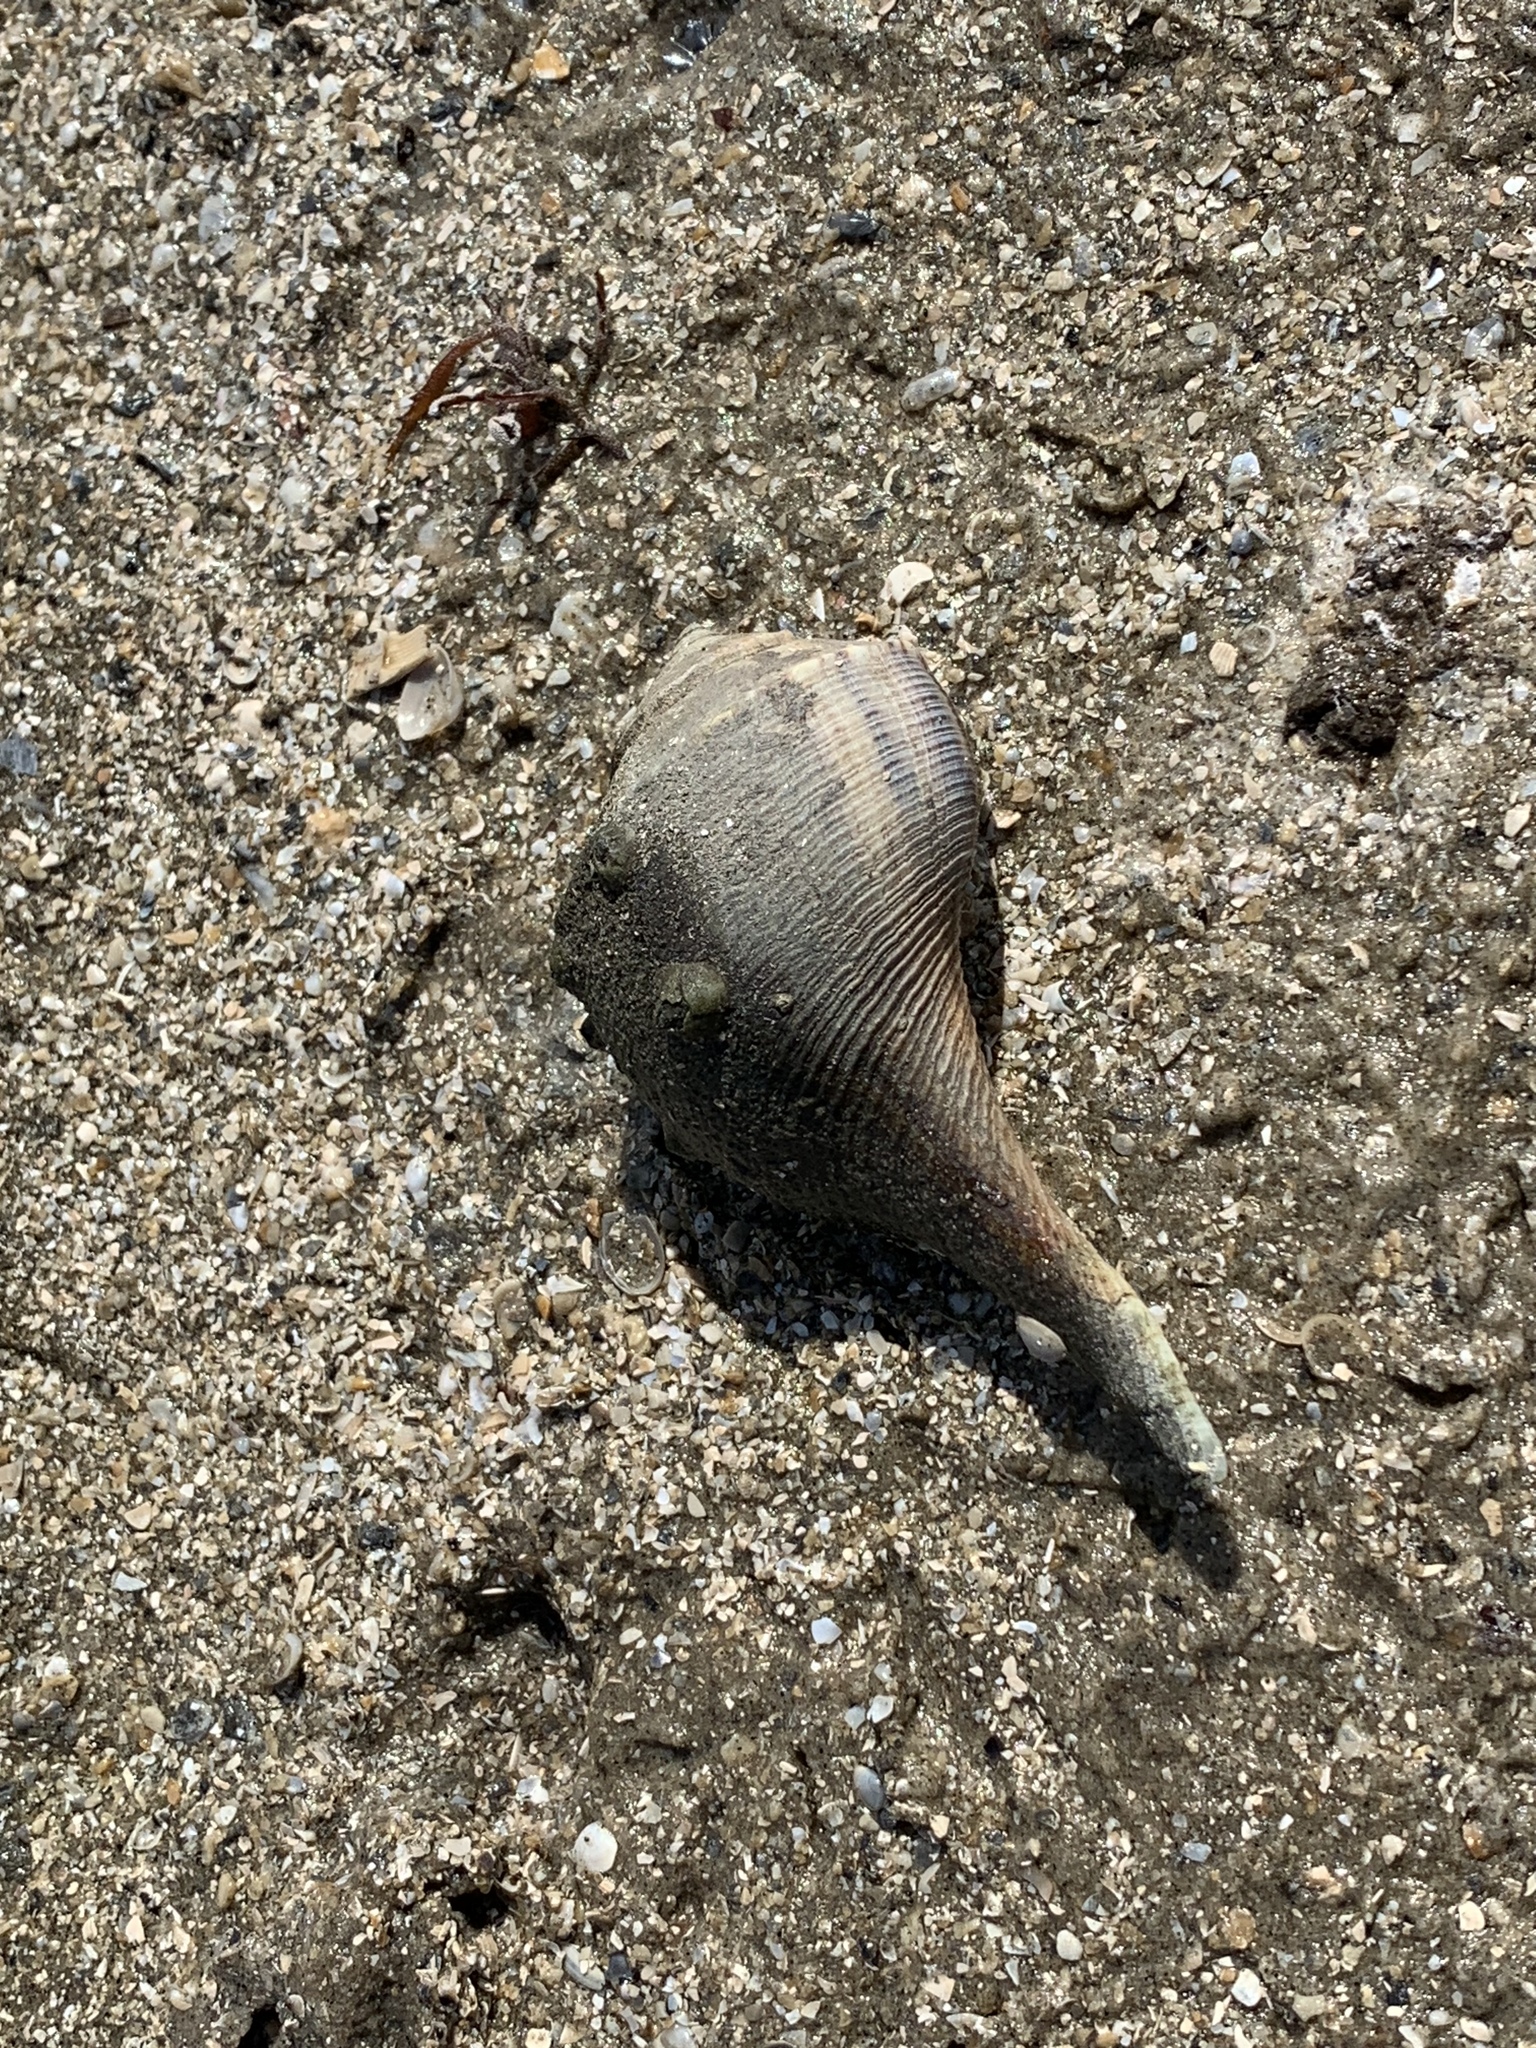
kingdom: Animalia
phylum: Mollusca
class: Gastropoda
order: Neogastropoda
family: Busyconidae
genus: Fulguropsis
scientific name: Fulguropsis plagosa
